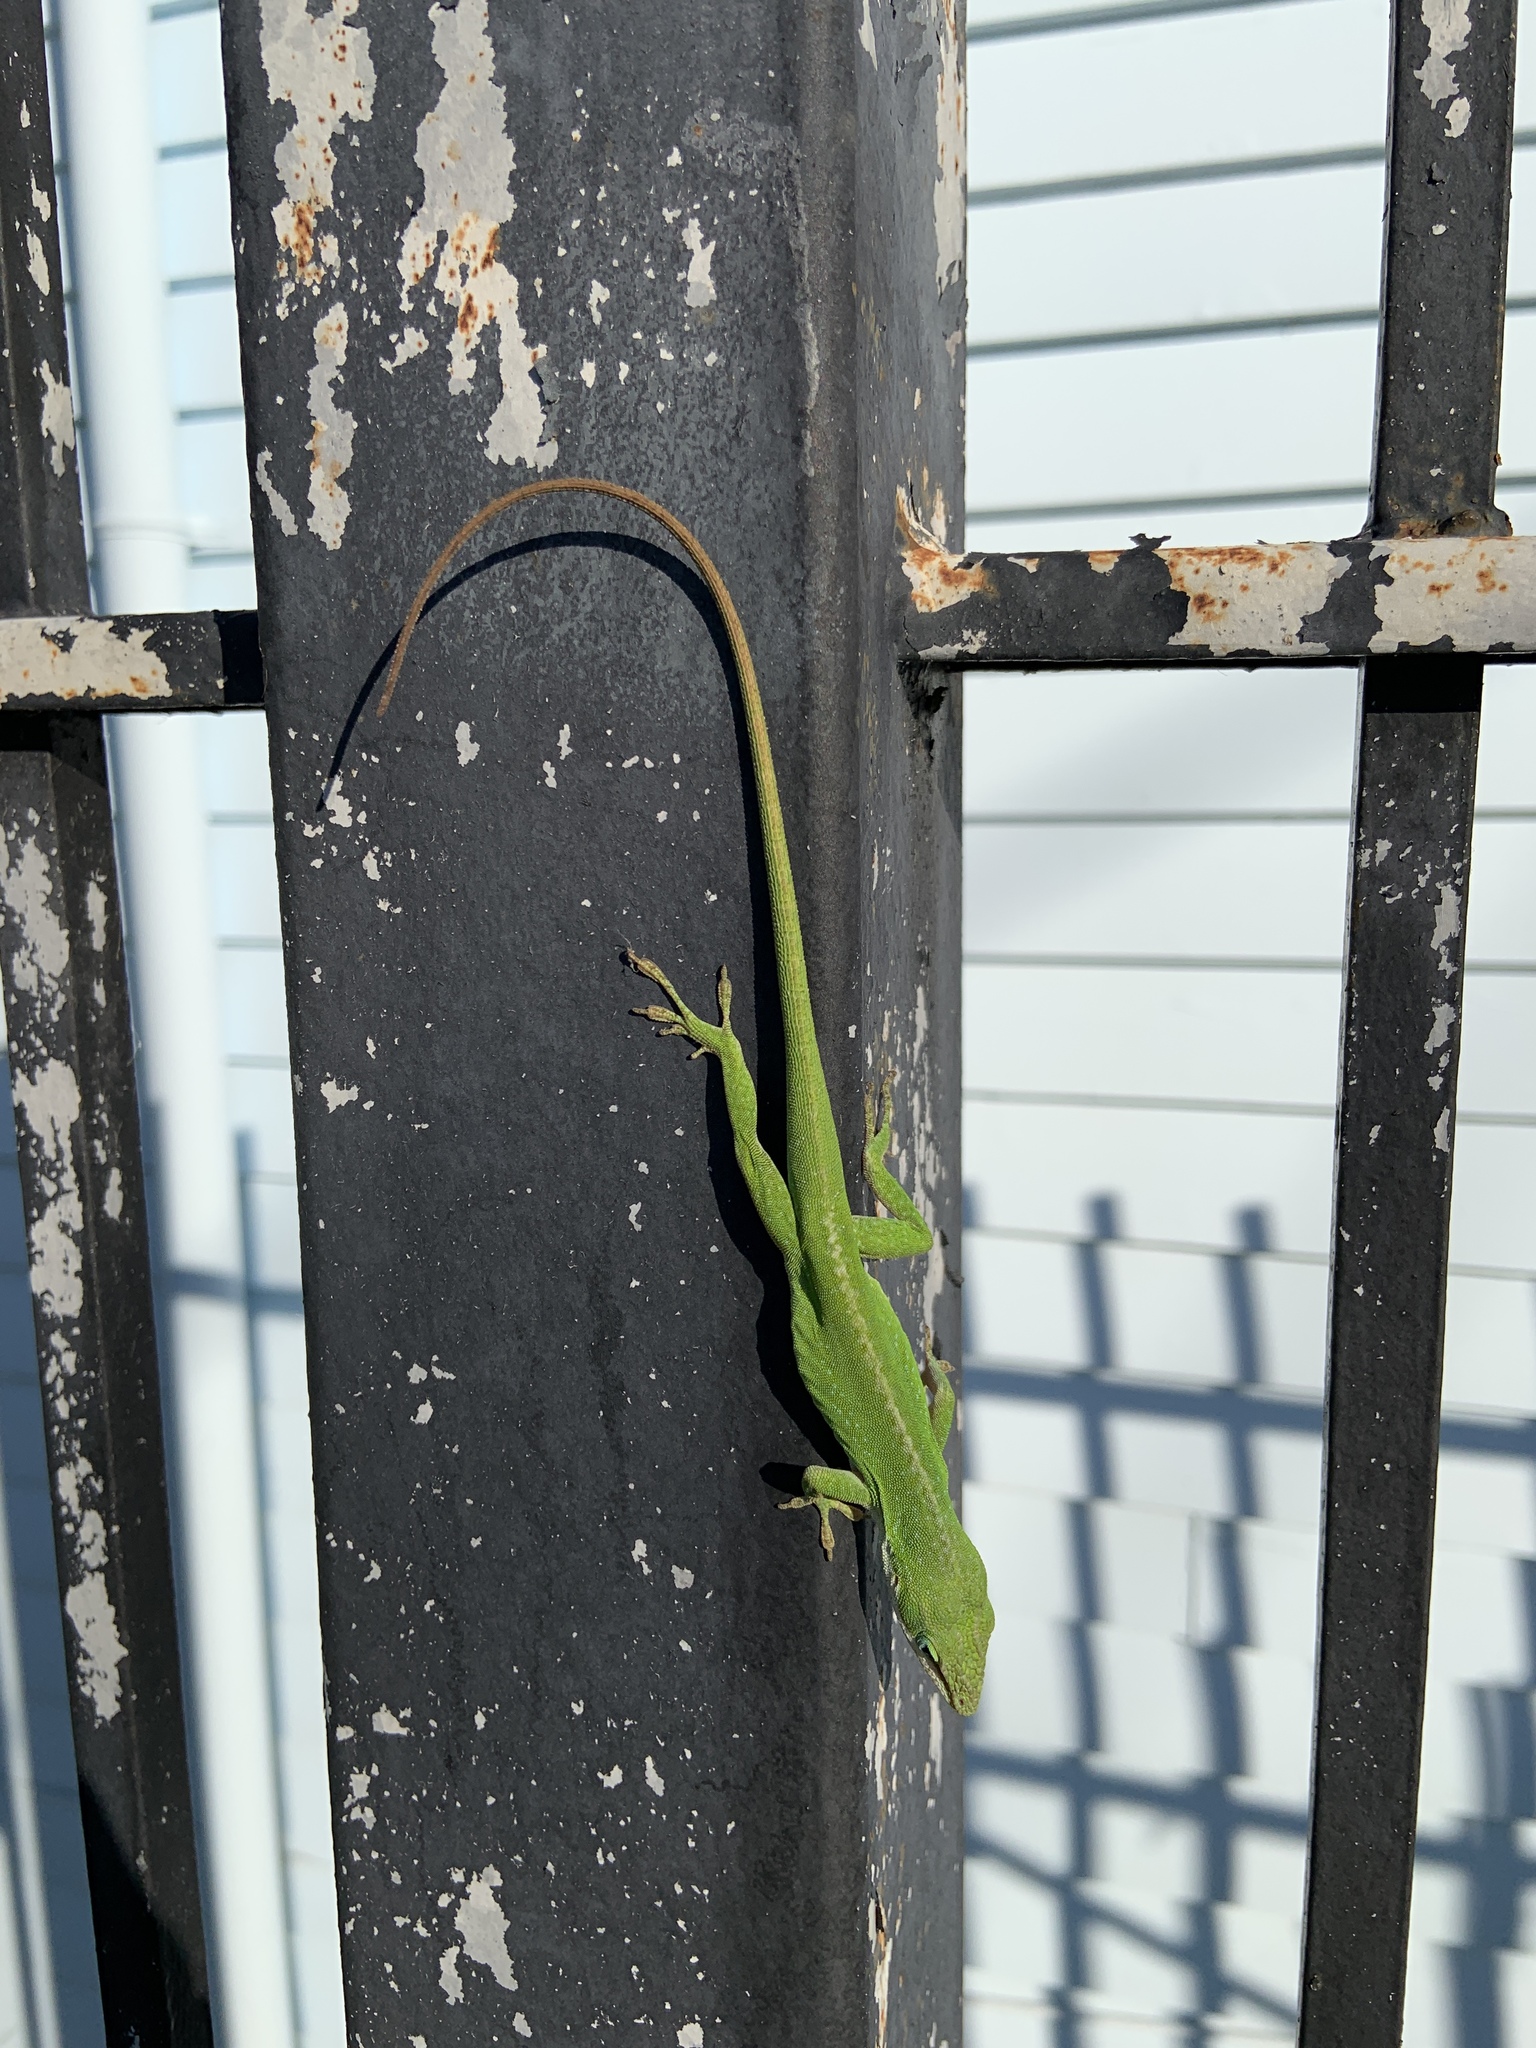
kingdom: Animalia
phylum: Chordata
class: Squamata
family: Dactyloidae
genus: Anolis
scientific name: Anolis carolinensis
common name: Green anole
